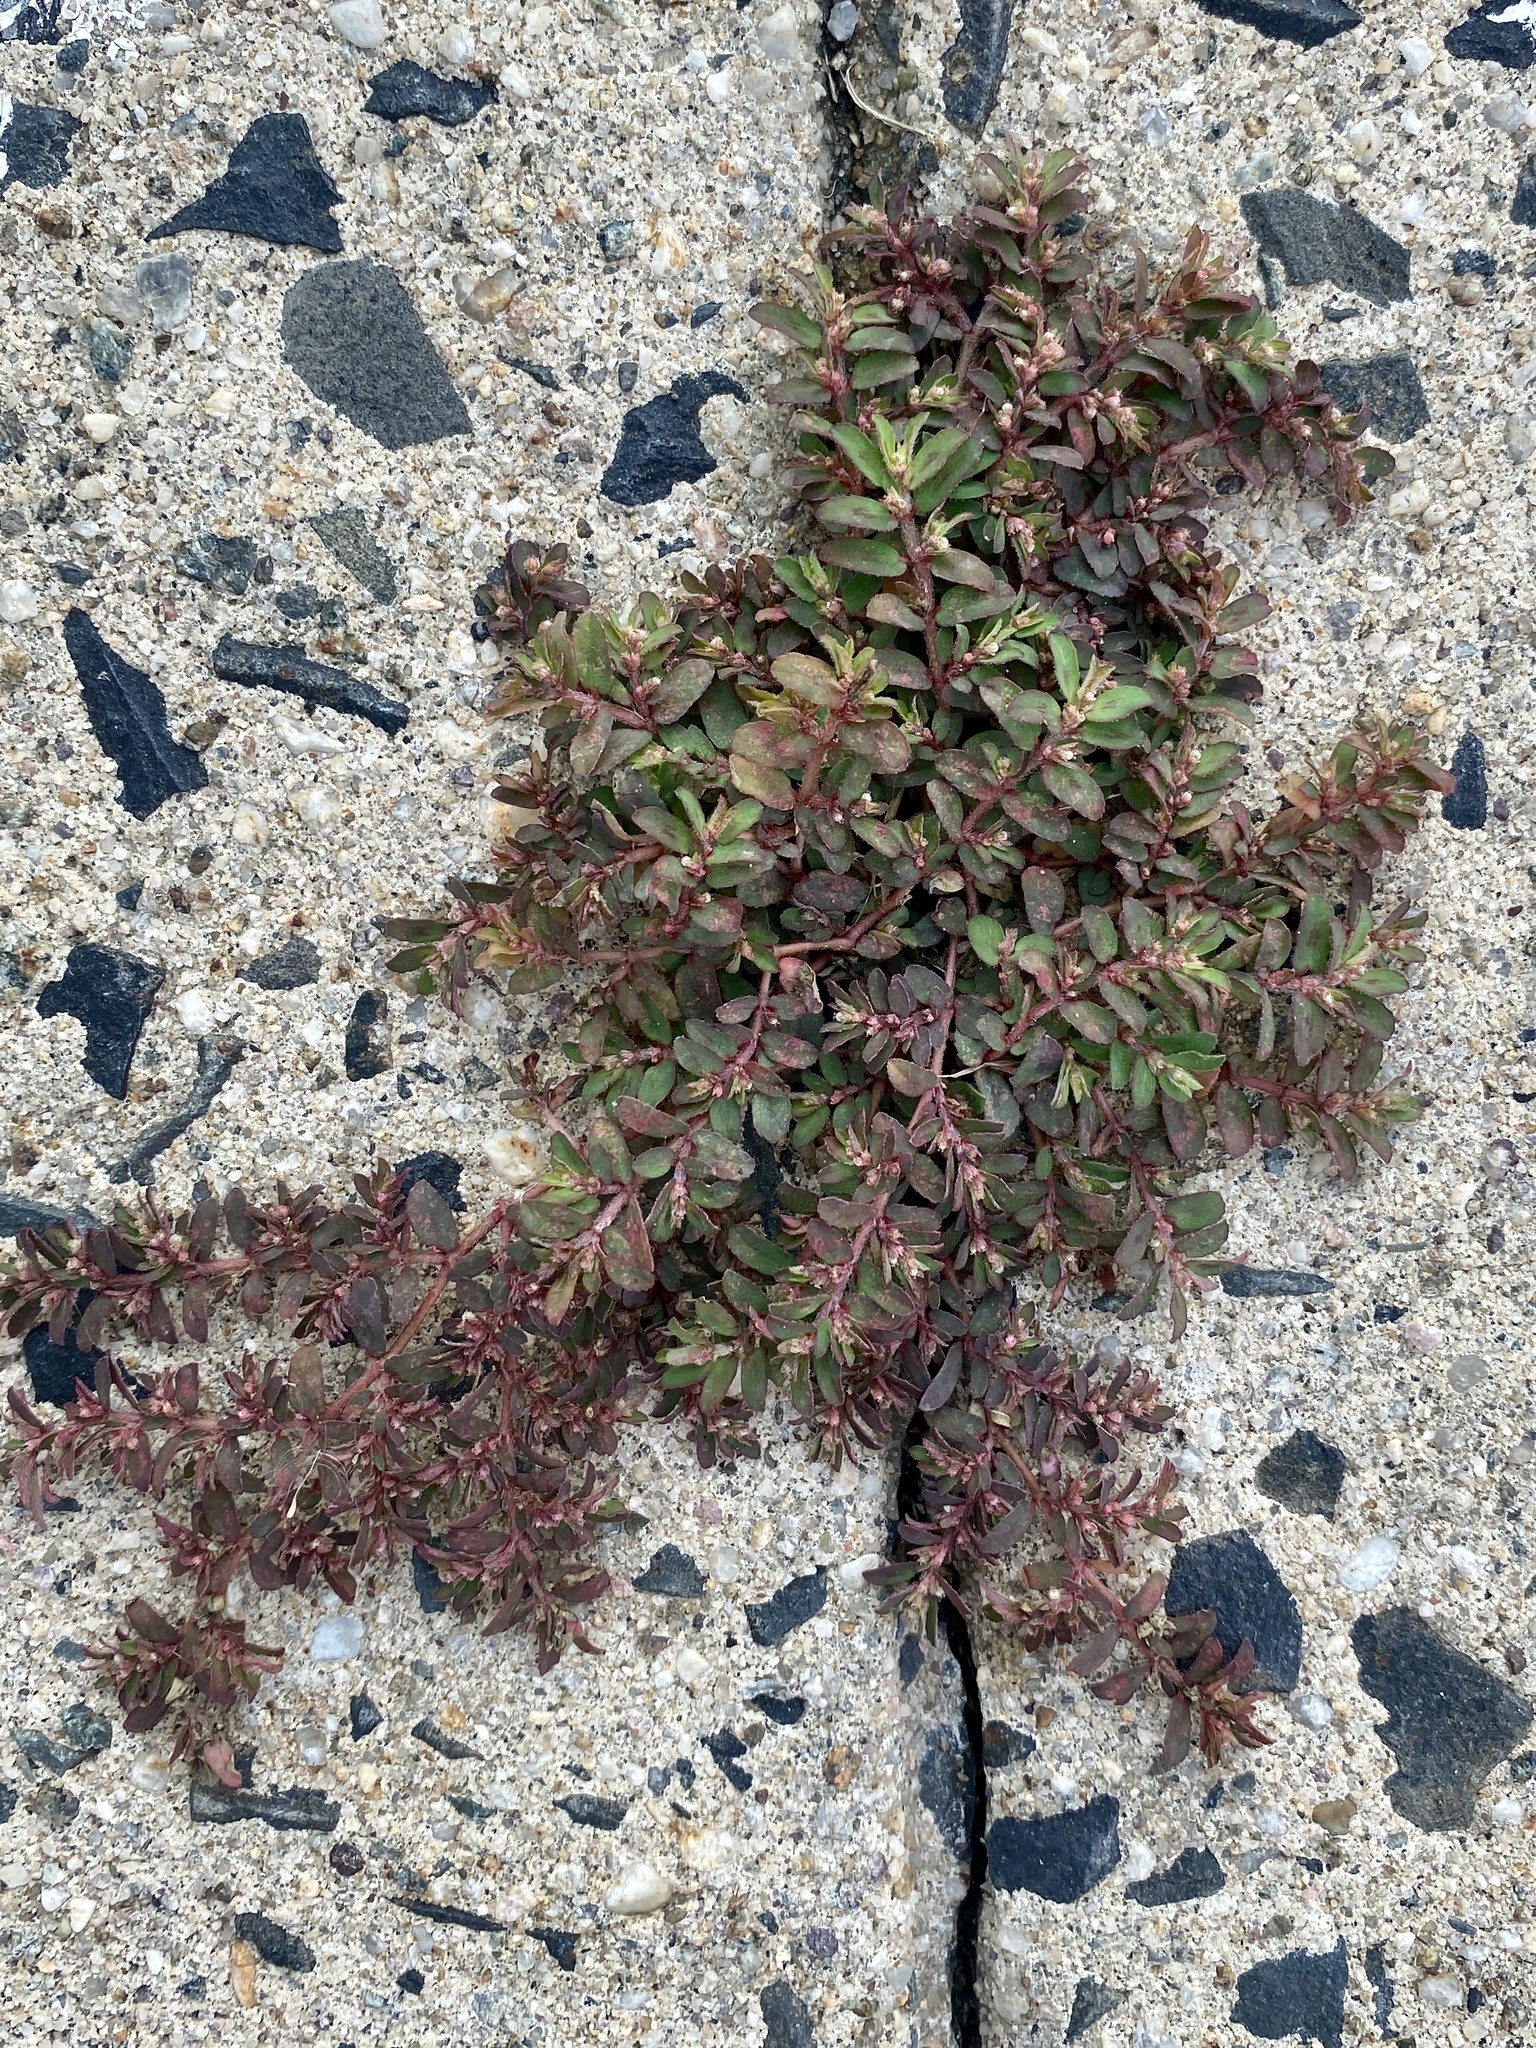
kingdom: Plantae
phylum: Tracheophyta
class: Magnoliopsida
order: Malpighiales
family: Euphorbiaceae
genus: Euphorbia
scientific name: Euphorbia maculata
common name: Spotted spurge
